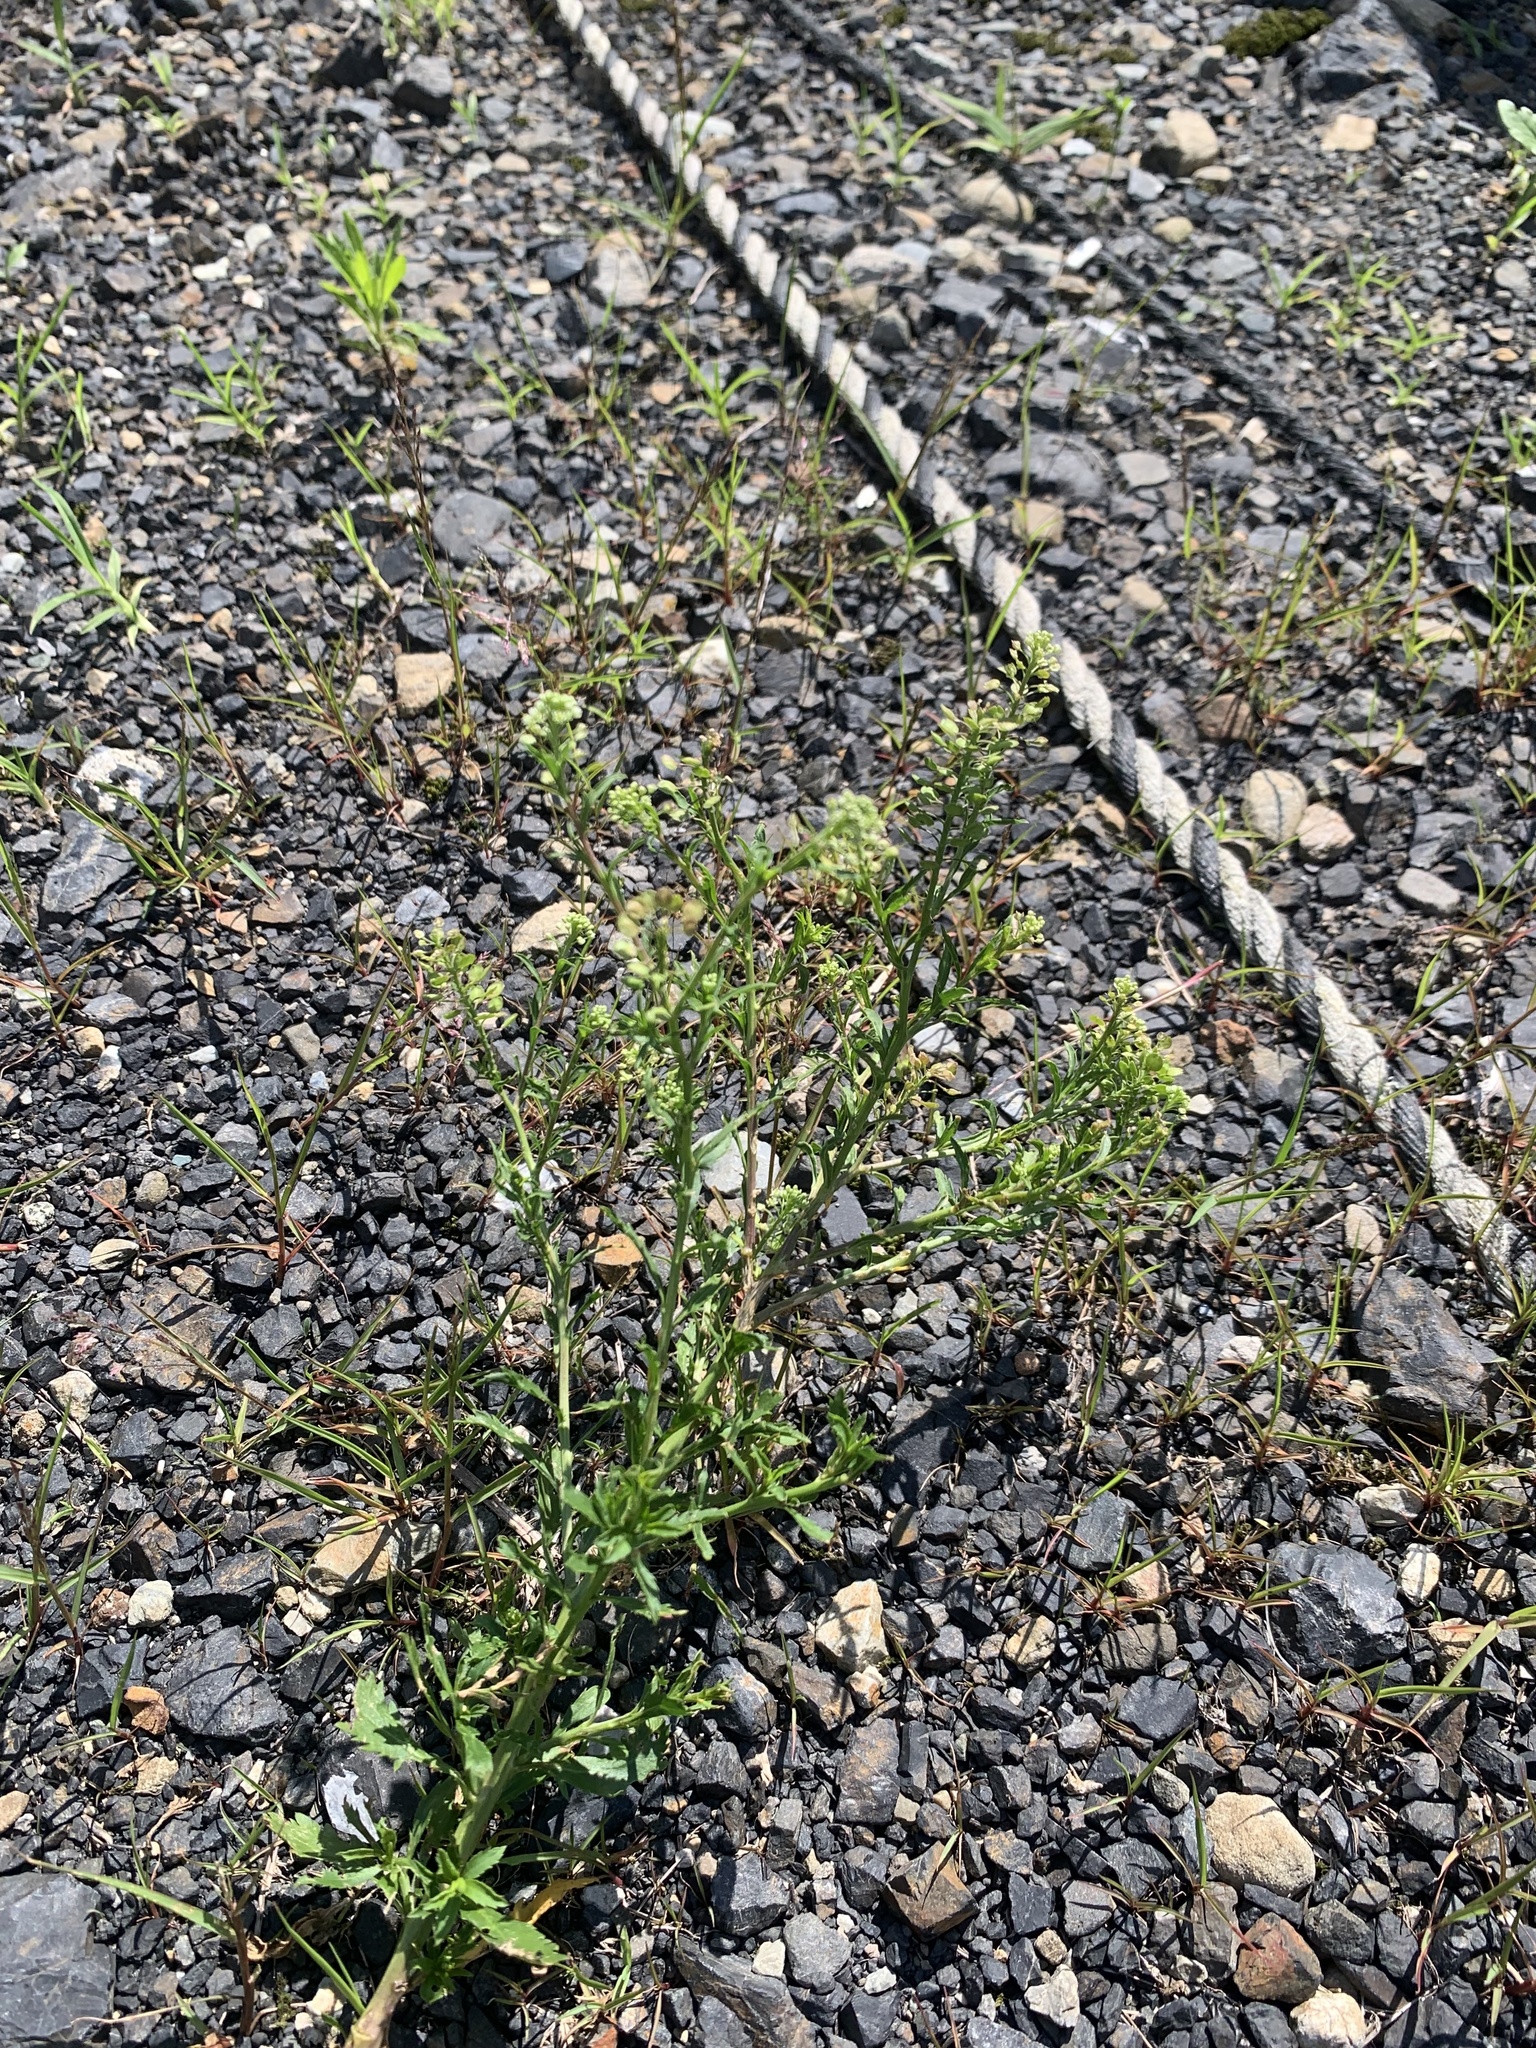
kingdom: Plantae
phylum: Tracheophyta
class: Magnoliopsida
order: Brassicales
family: Brassicaceae
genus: Lepidium
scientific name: Lepidium virginicum
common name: Least pepperwort
